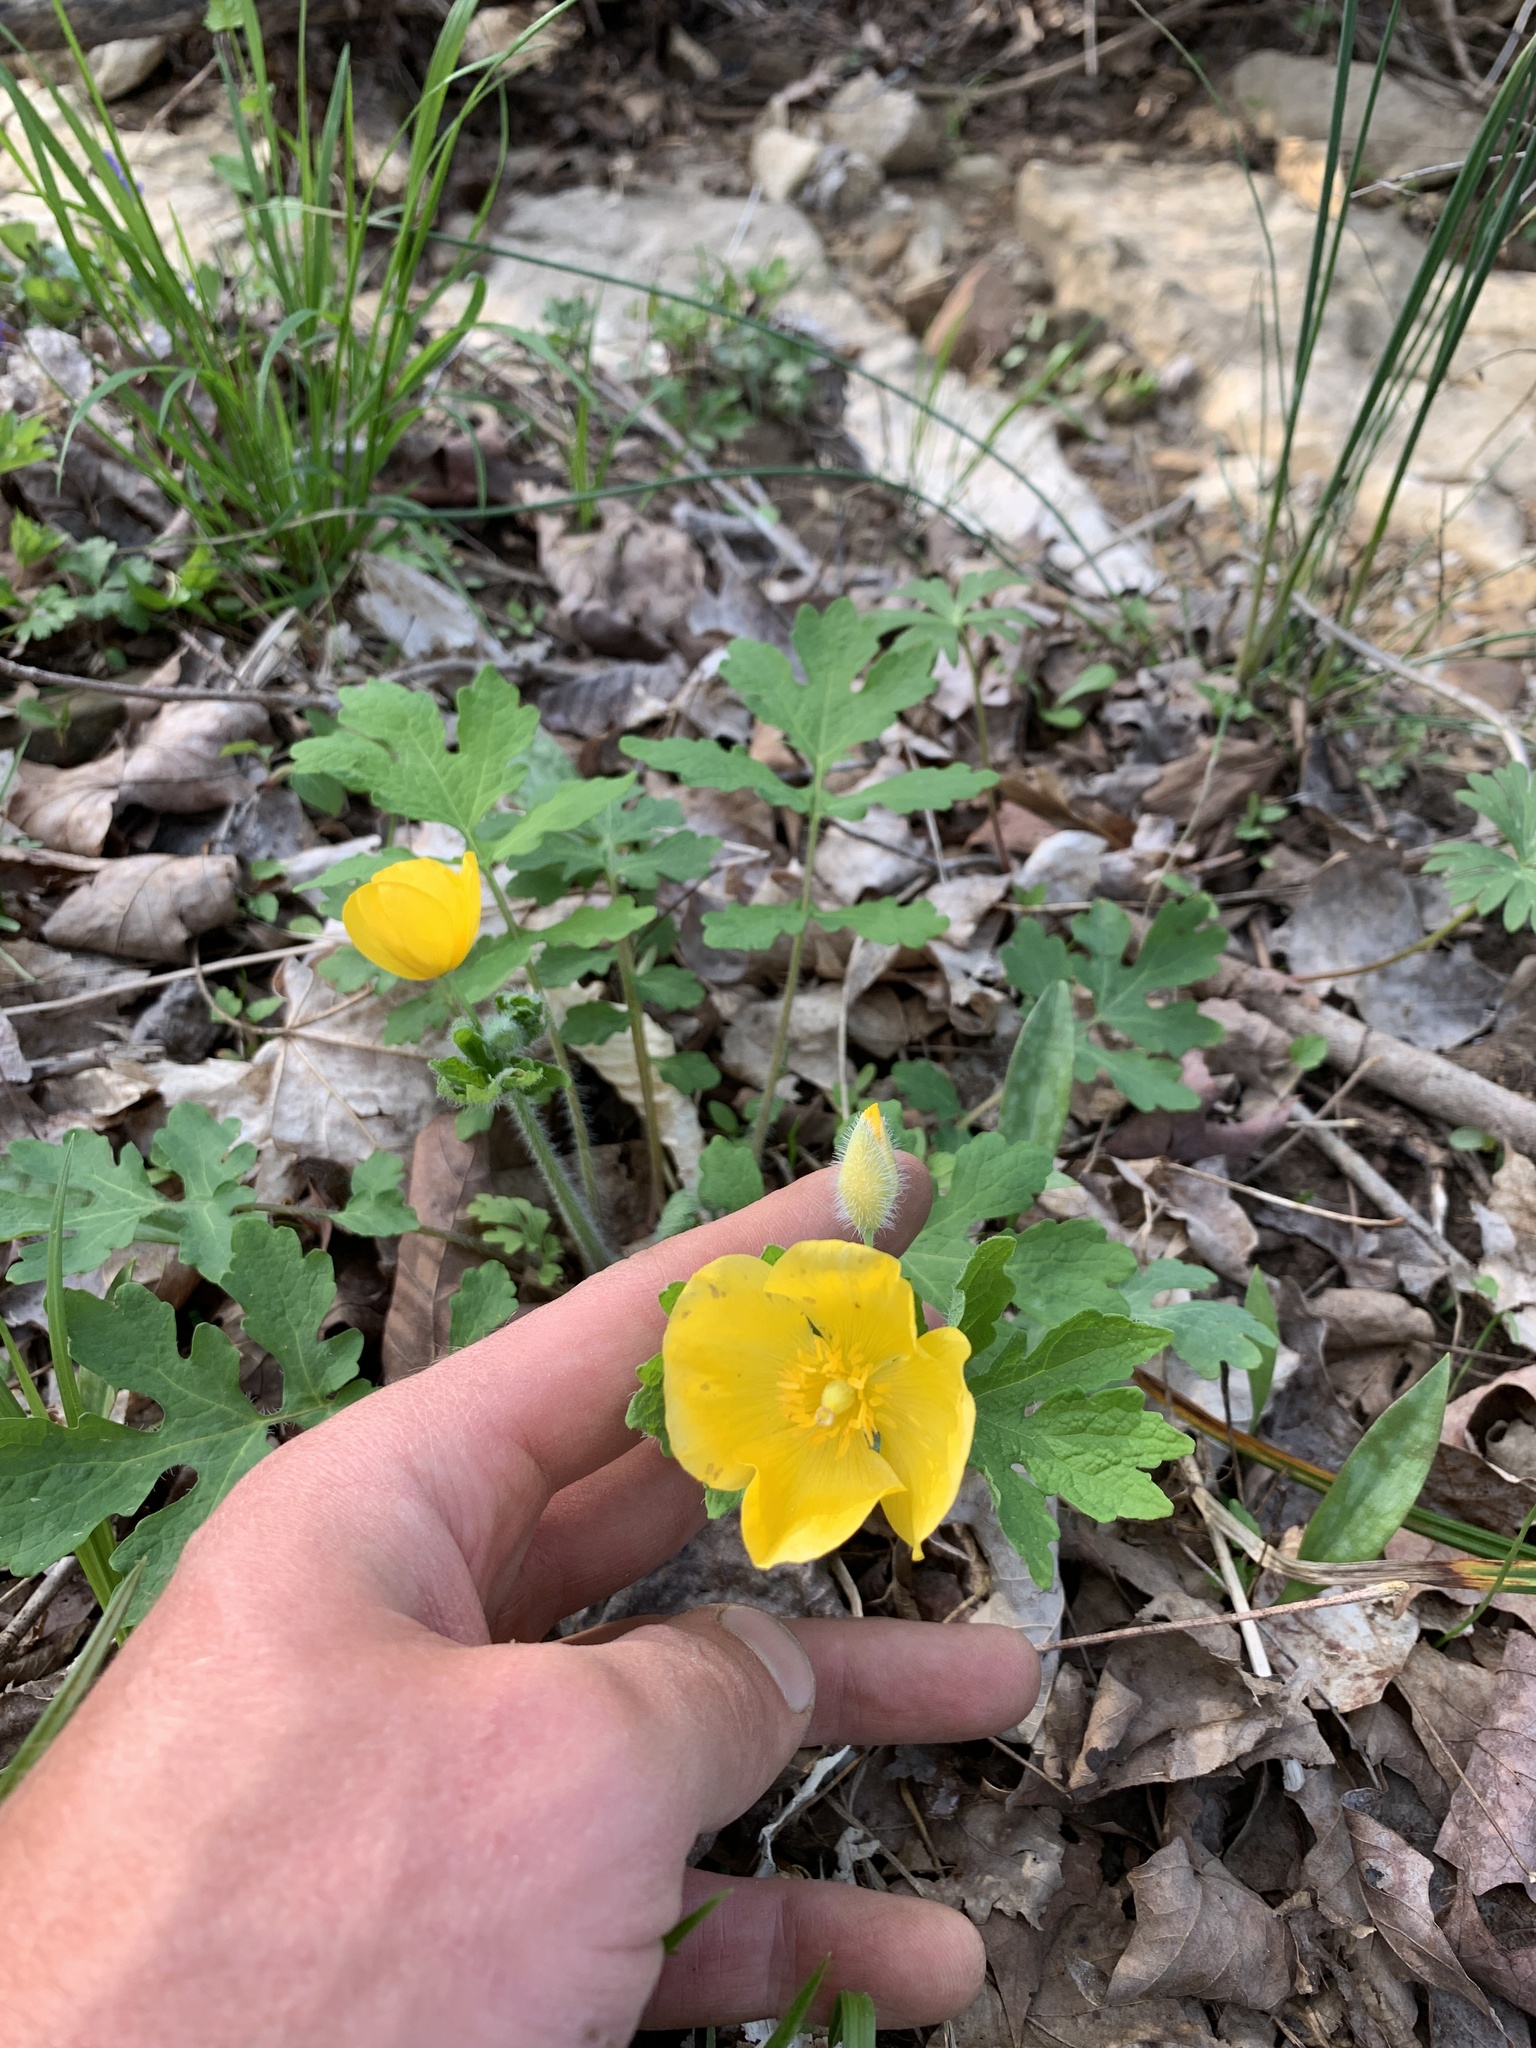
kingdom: Plantae
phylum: Tracheophyta
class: Magnoliopsida
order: Ranunculales
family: Papaveraceae
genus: Stylophorum
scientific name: Stylophorum diphyllum
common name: Celandine poppy
